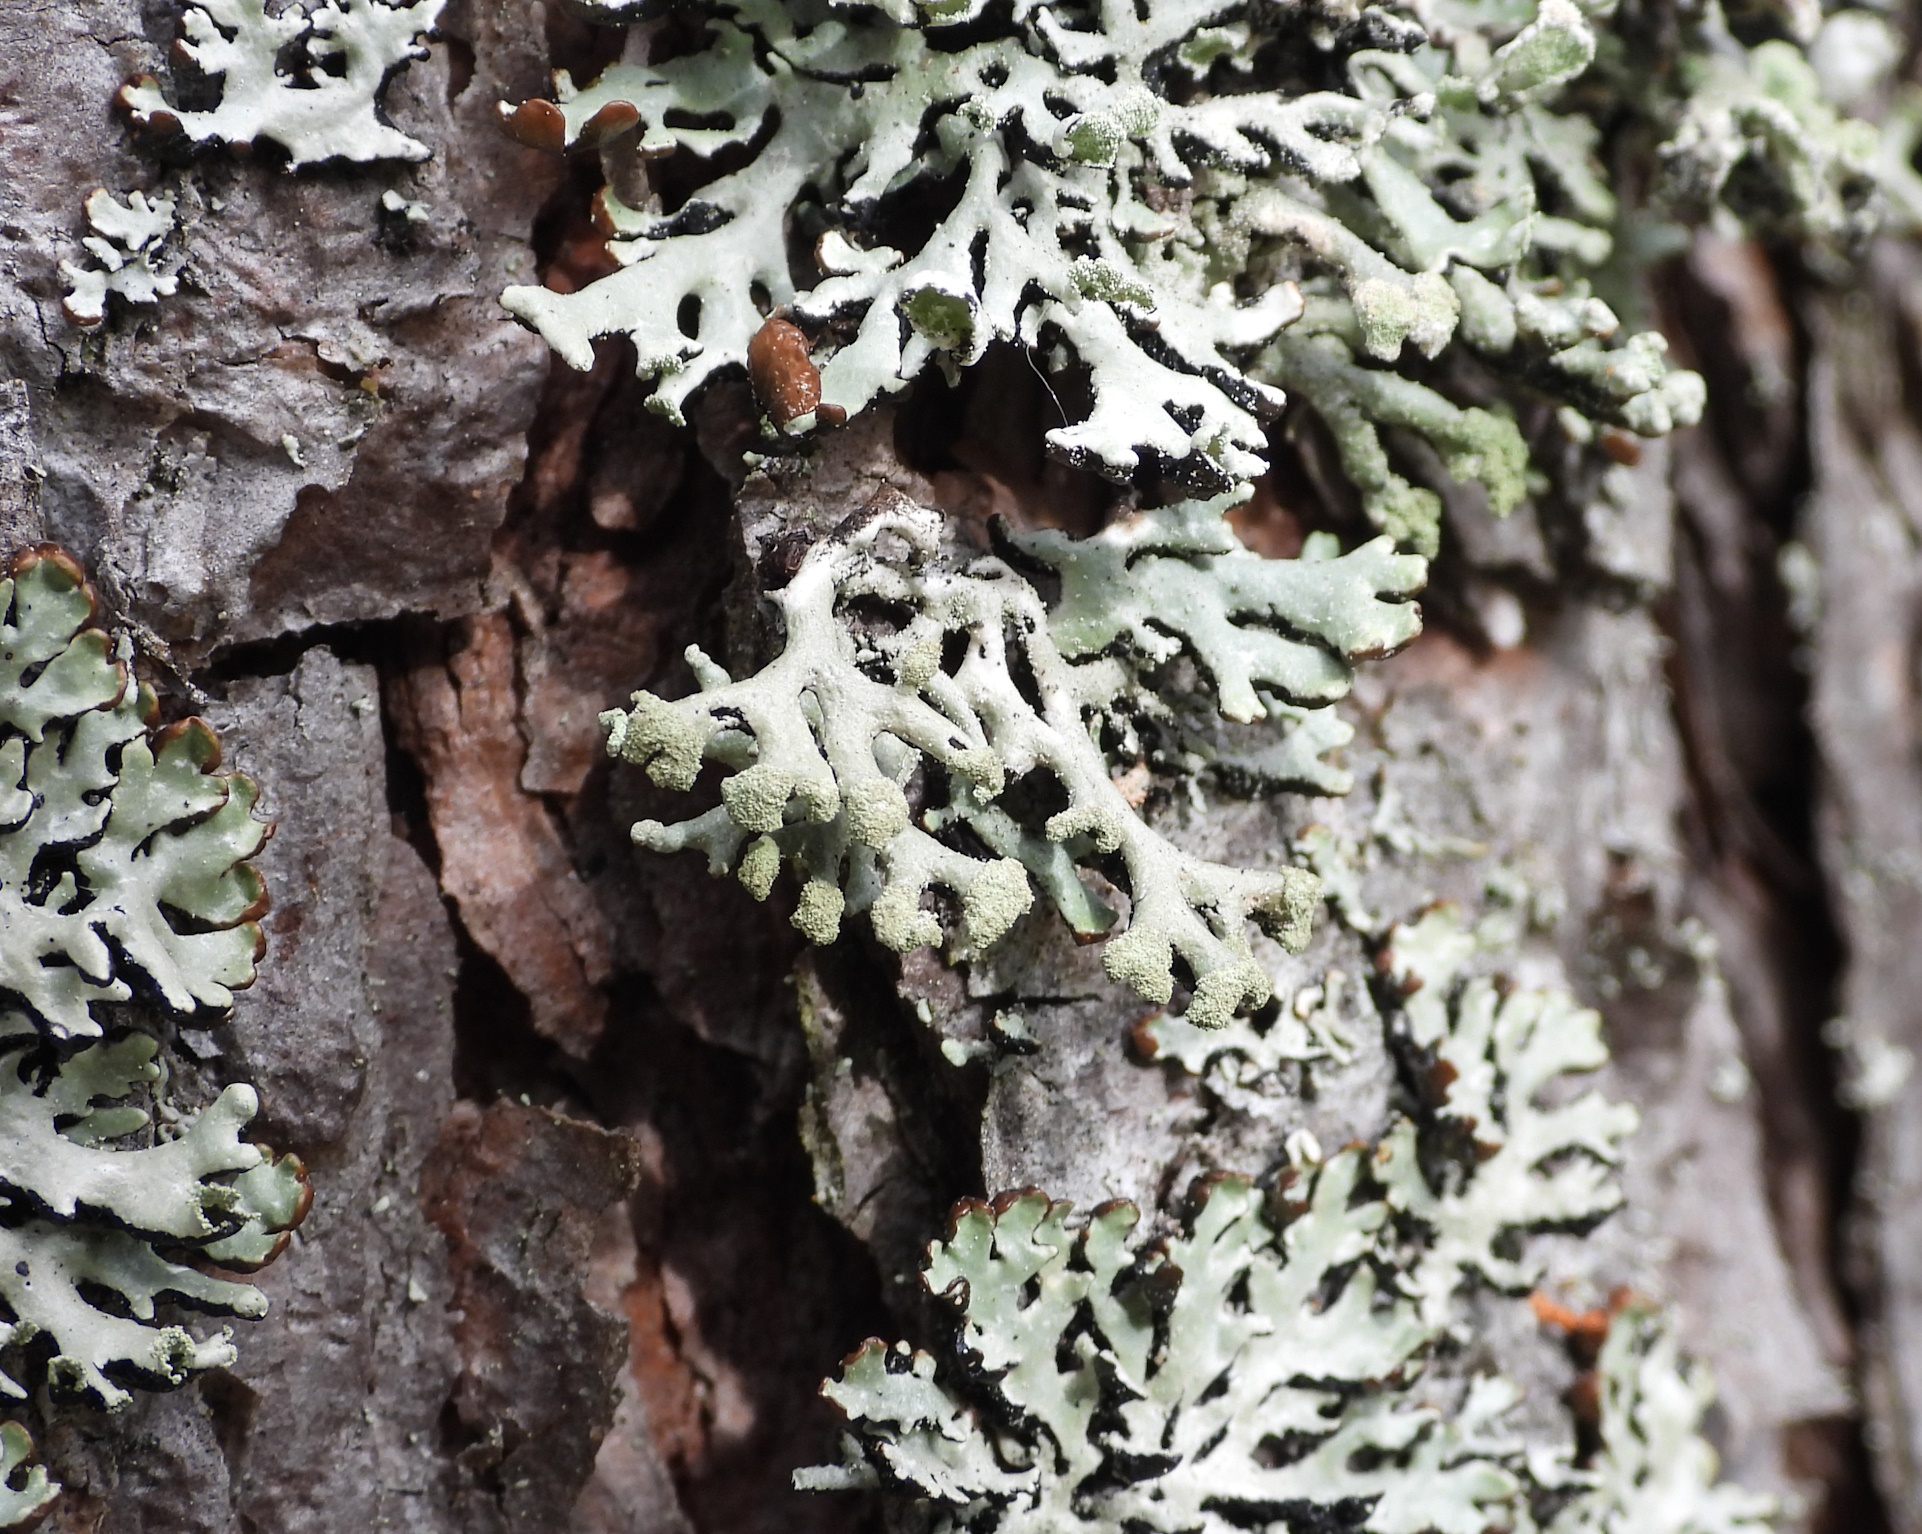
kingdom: Fungi
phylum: Ascomycota
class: Lecanoromycetes
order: Lecanorales
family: Parmeliaceae
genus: Hypogymnia
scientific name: Hypogymnia tubulosa
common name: Powder-headed tube lichen
